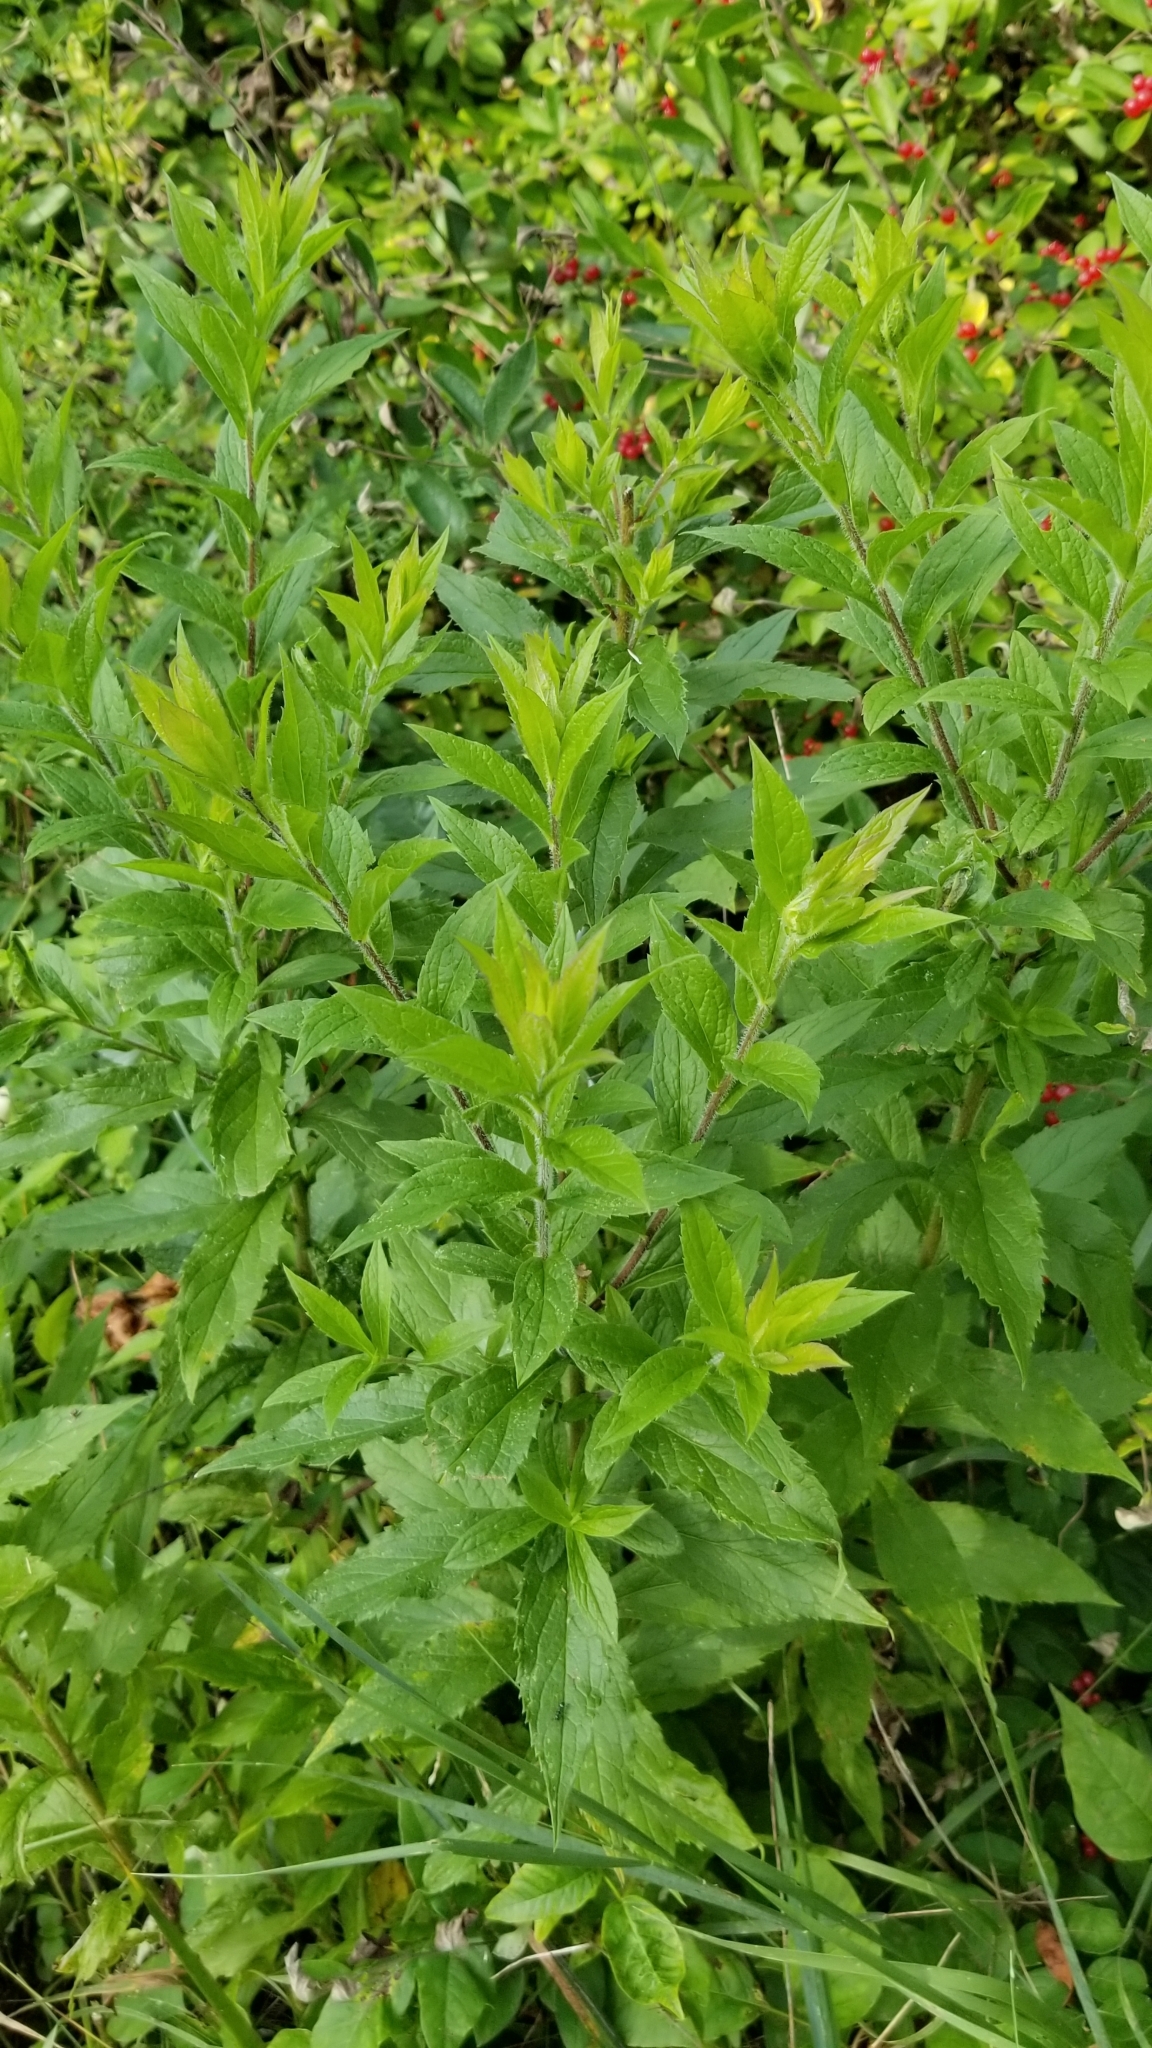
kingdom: Plantae
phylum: Tracheophyta
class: Magnoliopsida
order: Asterales
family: Asteraceae
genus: Solidago
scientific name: Solidago rugosa
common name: Rough-stemmed goldenrod
